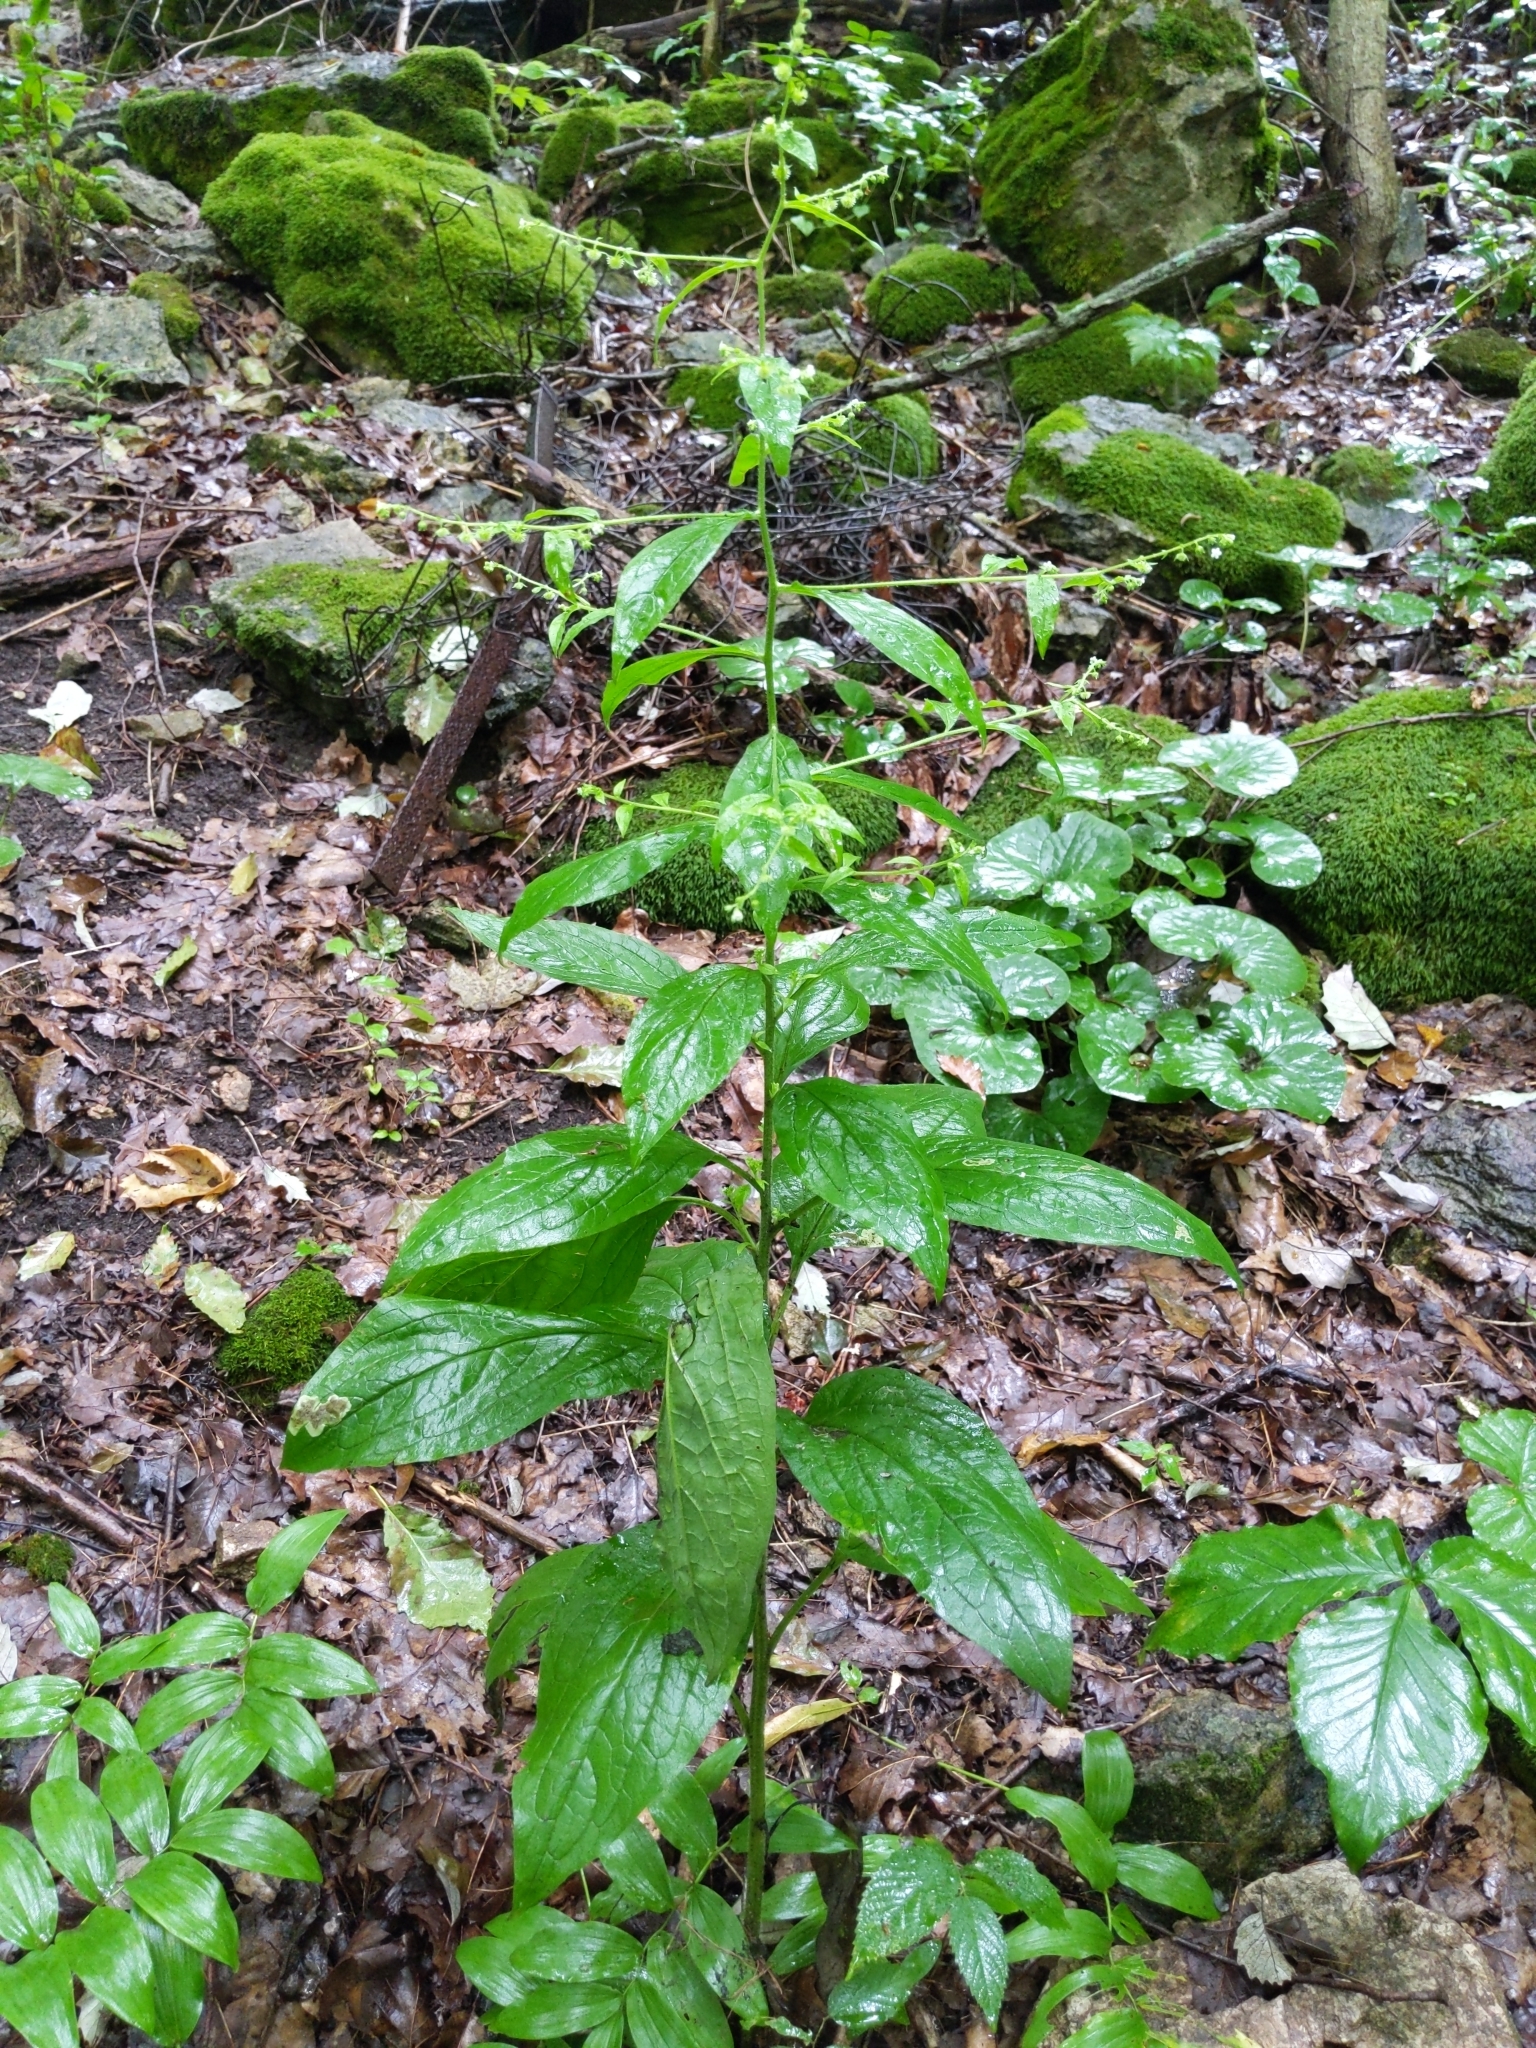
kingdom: Plantae
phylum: Tracheophyta
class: Magnoliopsida
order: Boraginales
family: Boraginaceae
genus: Hackelia
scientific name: Hackelia virginiana
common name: Beggar's-lice
